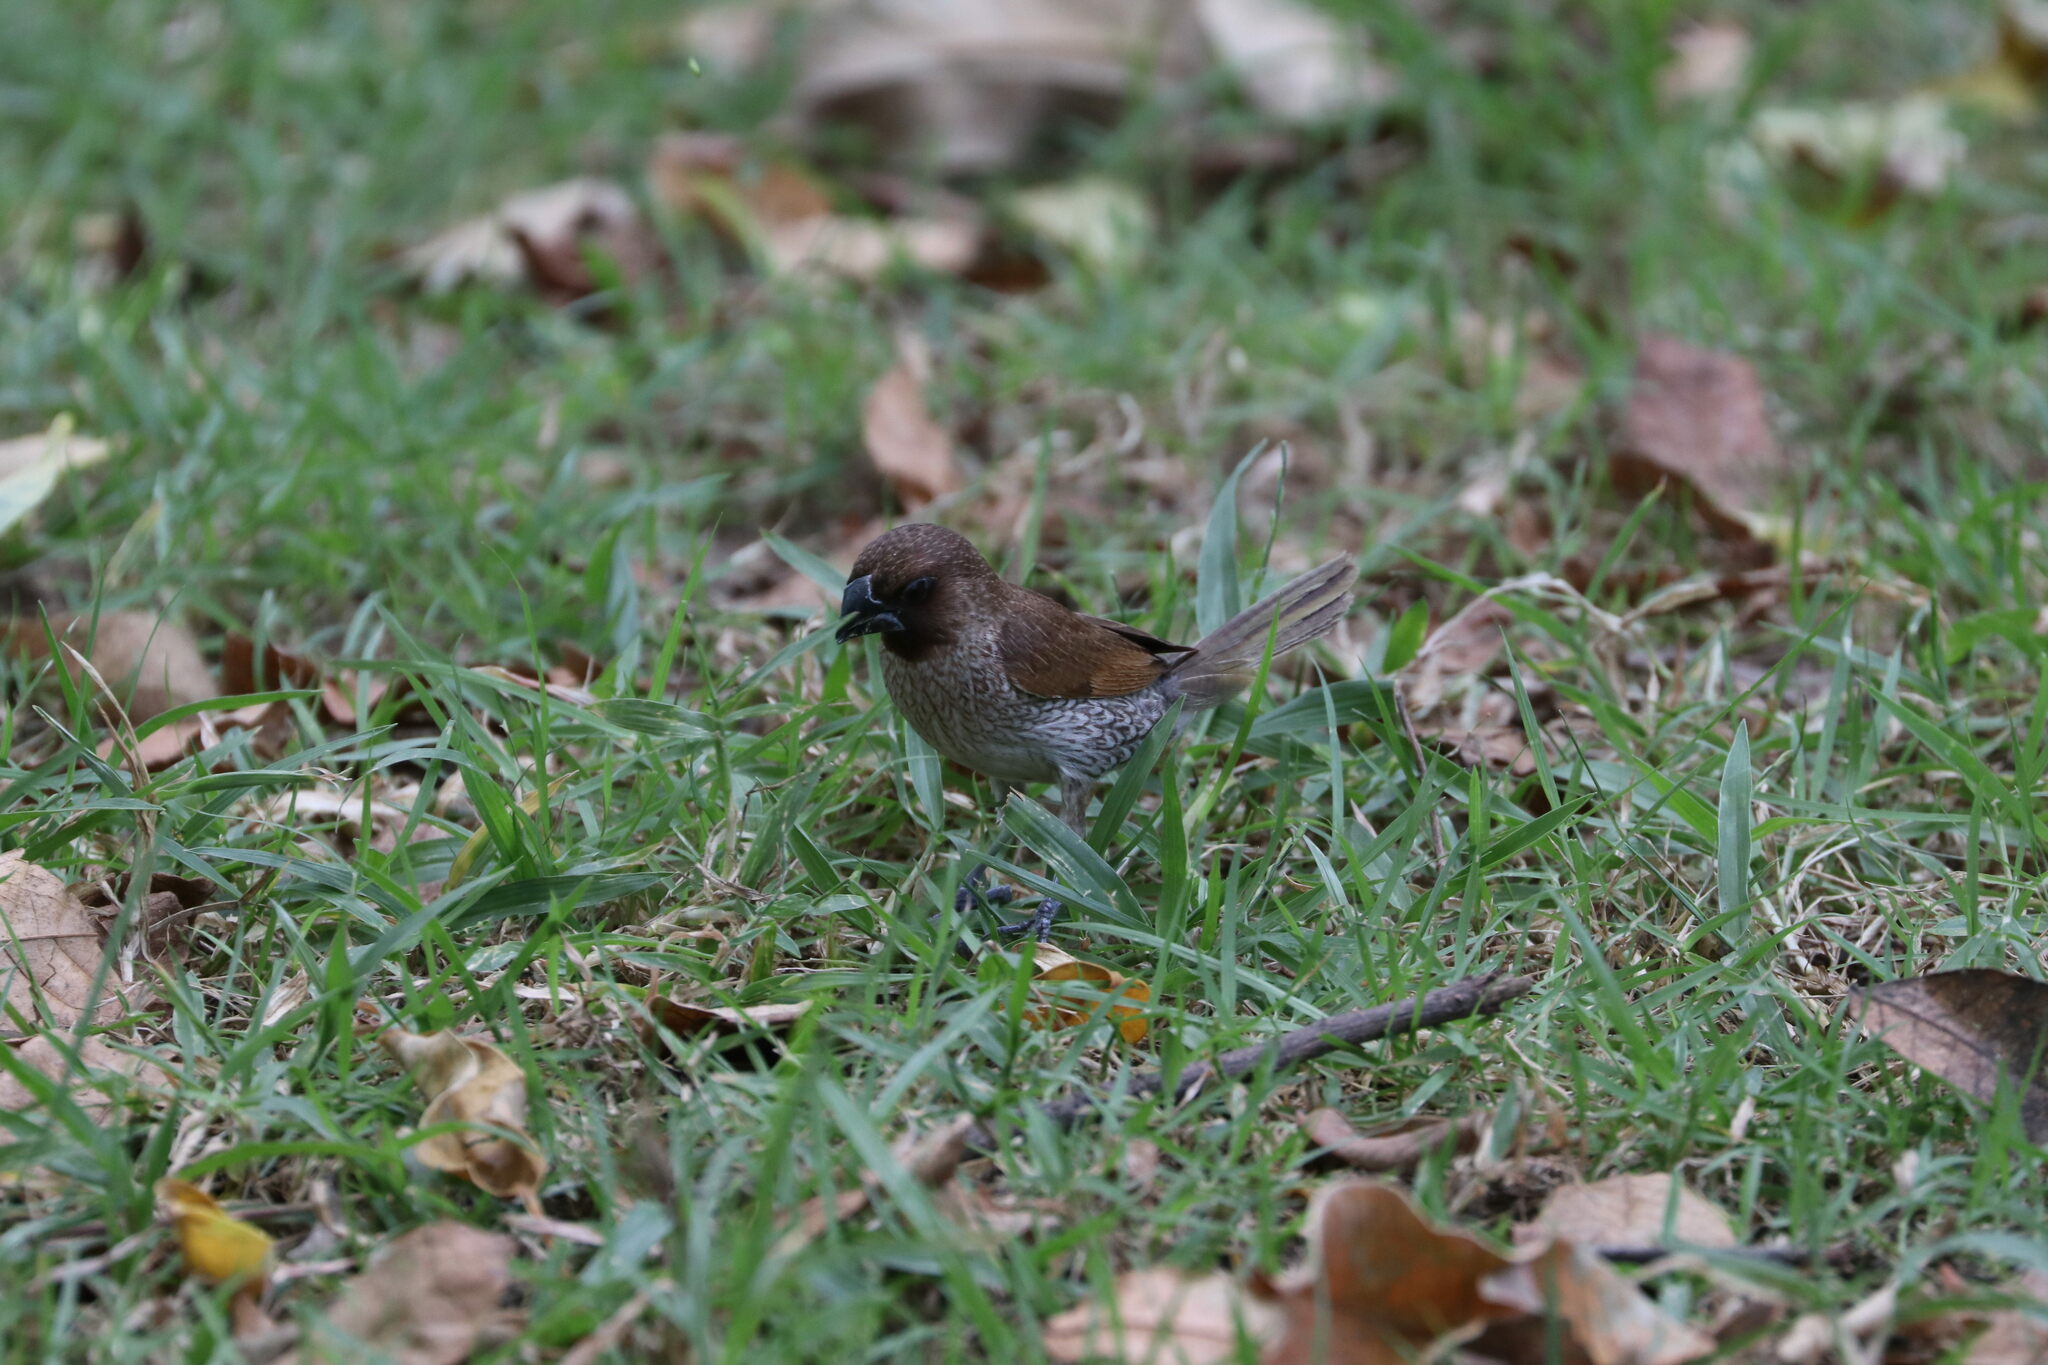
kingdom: Animalia
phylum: Chordata
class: Aves
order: Passeriformes
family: Estrildidae
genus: Lonchura
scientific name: Lonchura punctulata
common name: Scaly-breasted munia
